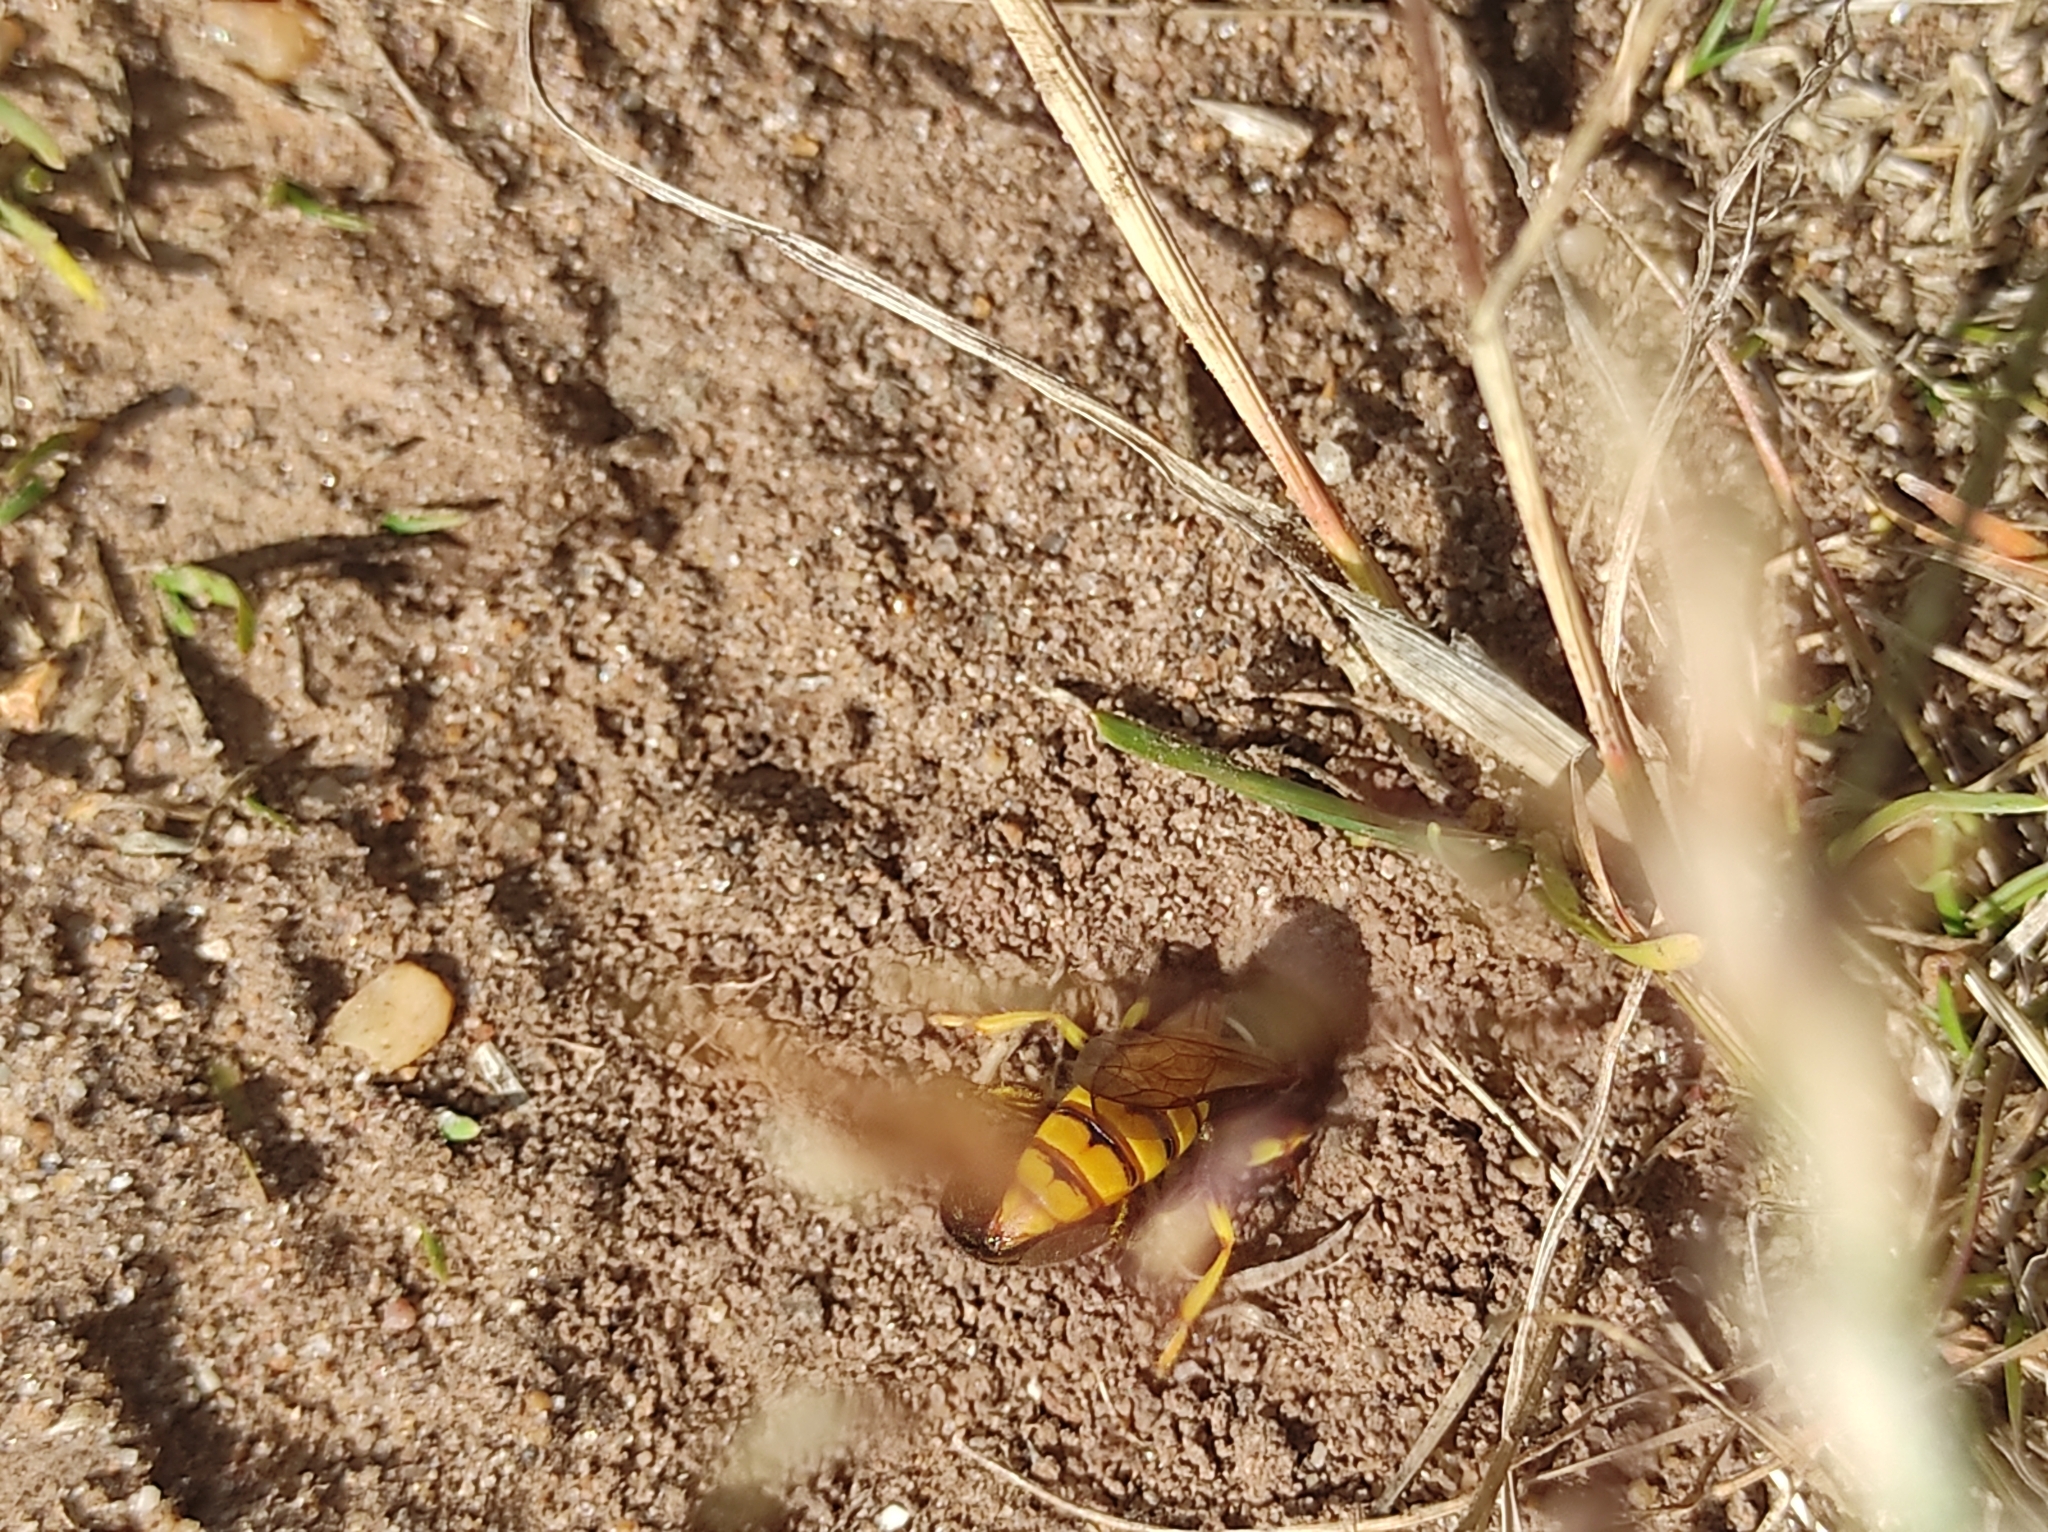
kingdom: Animalia
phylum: Arthropoda
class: Insecta
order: Hymenoptera
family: Crabronidae
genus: Philanthus
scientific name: Philanthus triangulum
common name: Bee wolf
